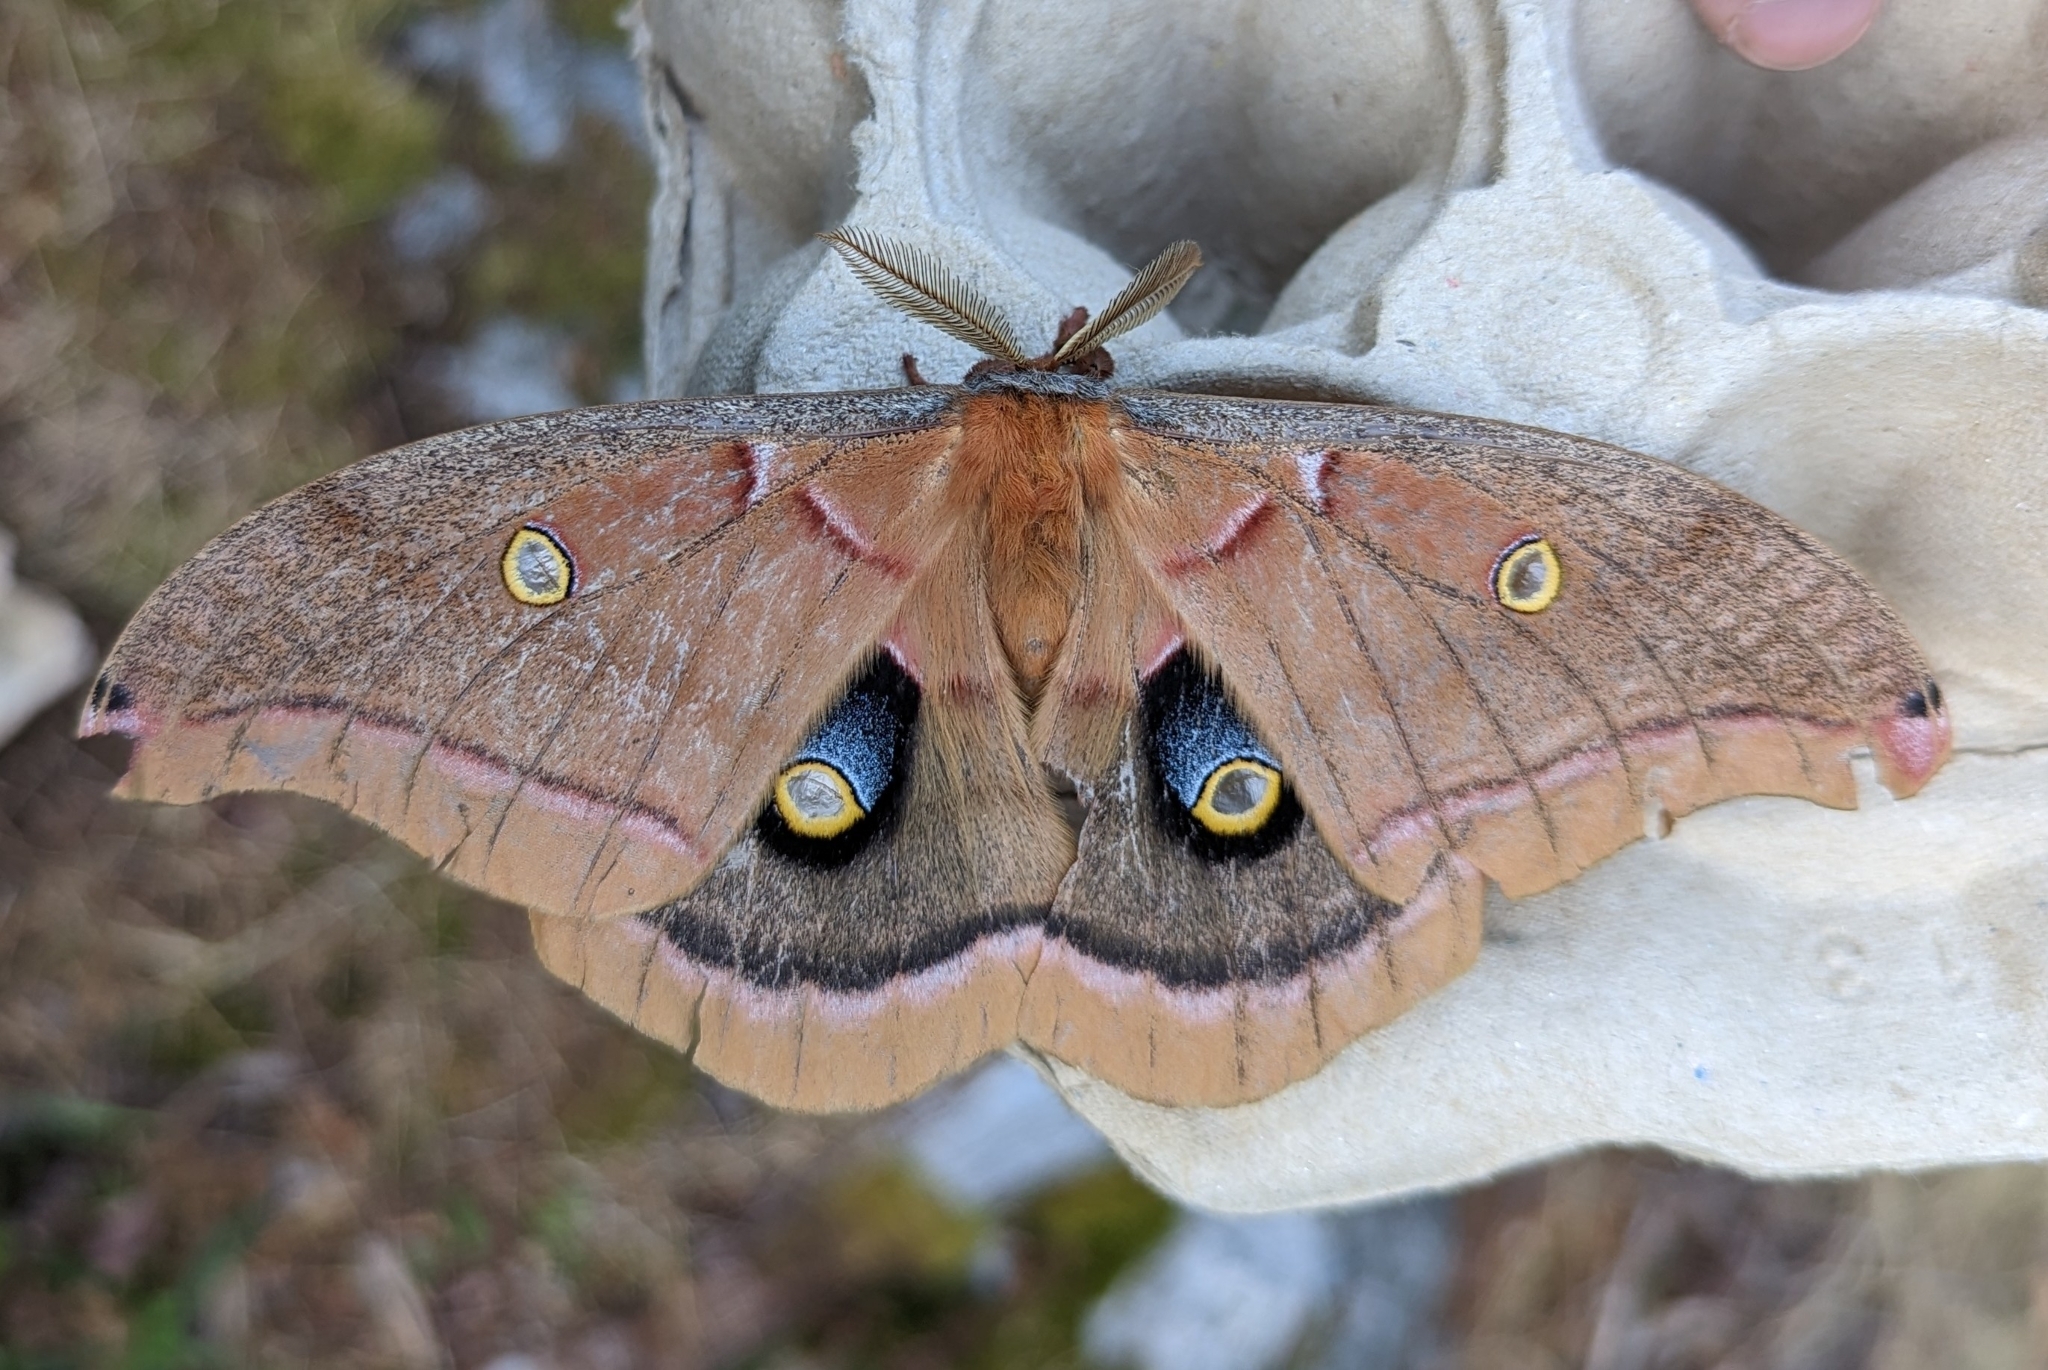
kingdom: Animalia
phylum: Arthropoda
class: Insecta
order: Lepidoptera
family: Saturniidae
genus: Antheraea
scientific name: Antheraea polyphemus
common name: Polyphemus moth
